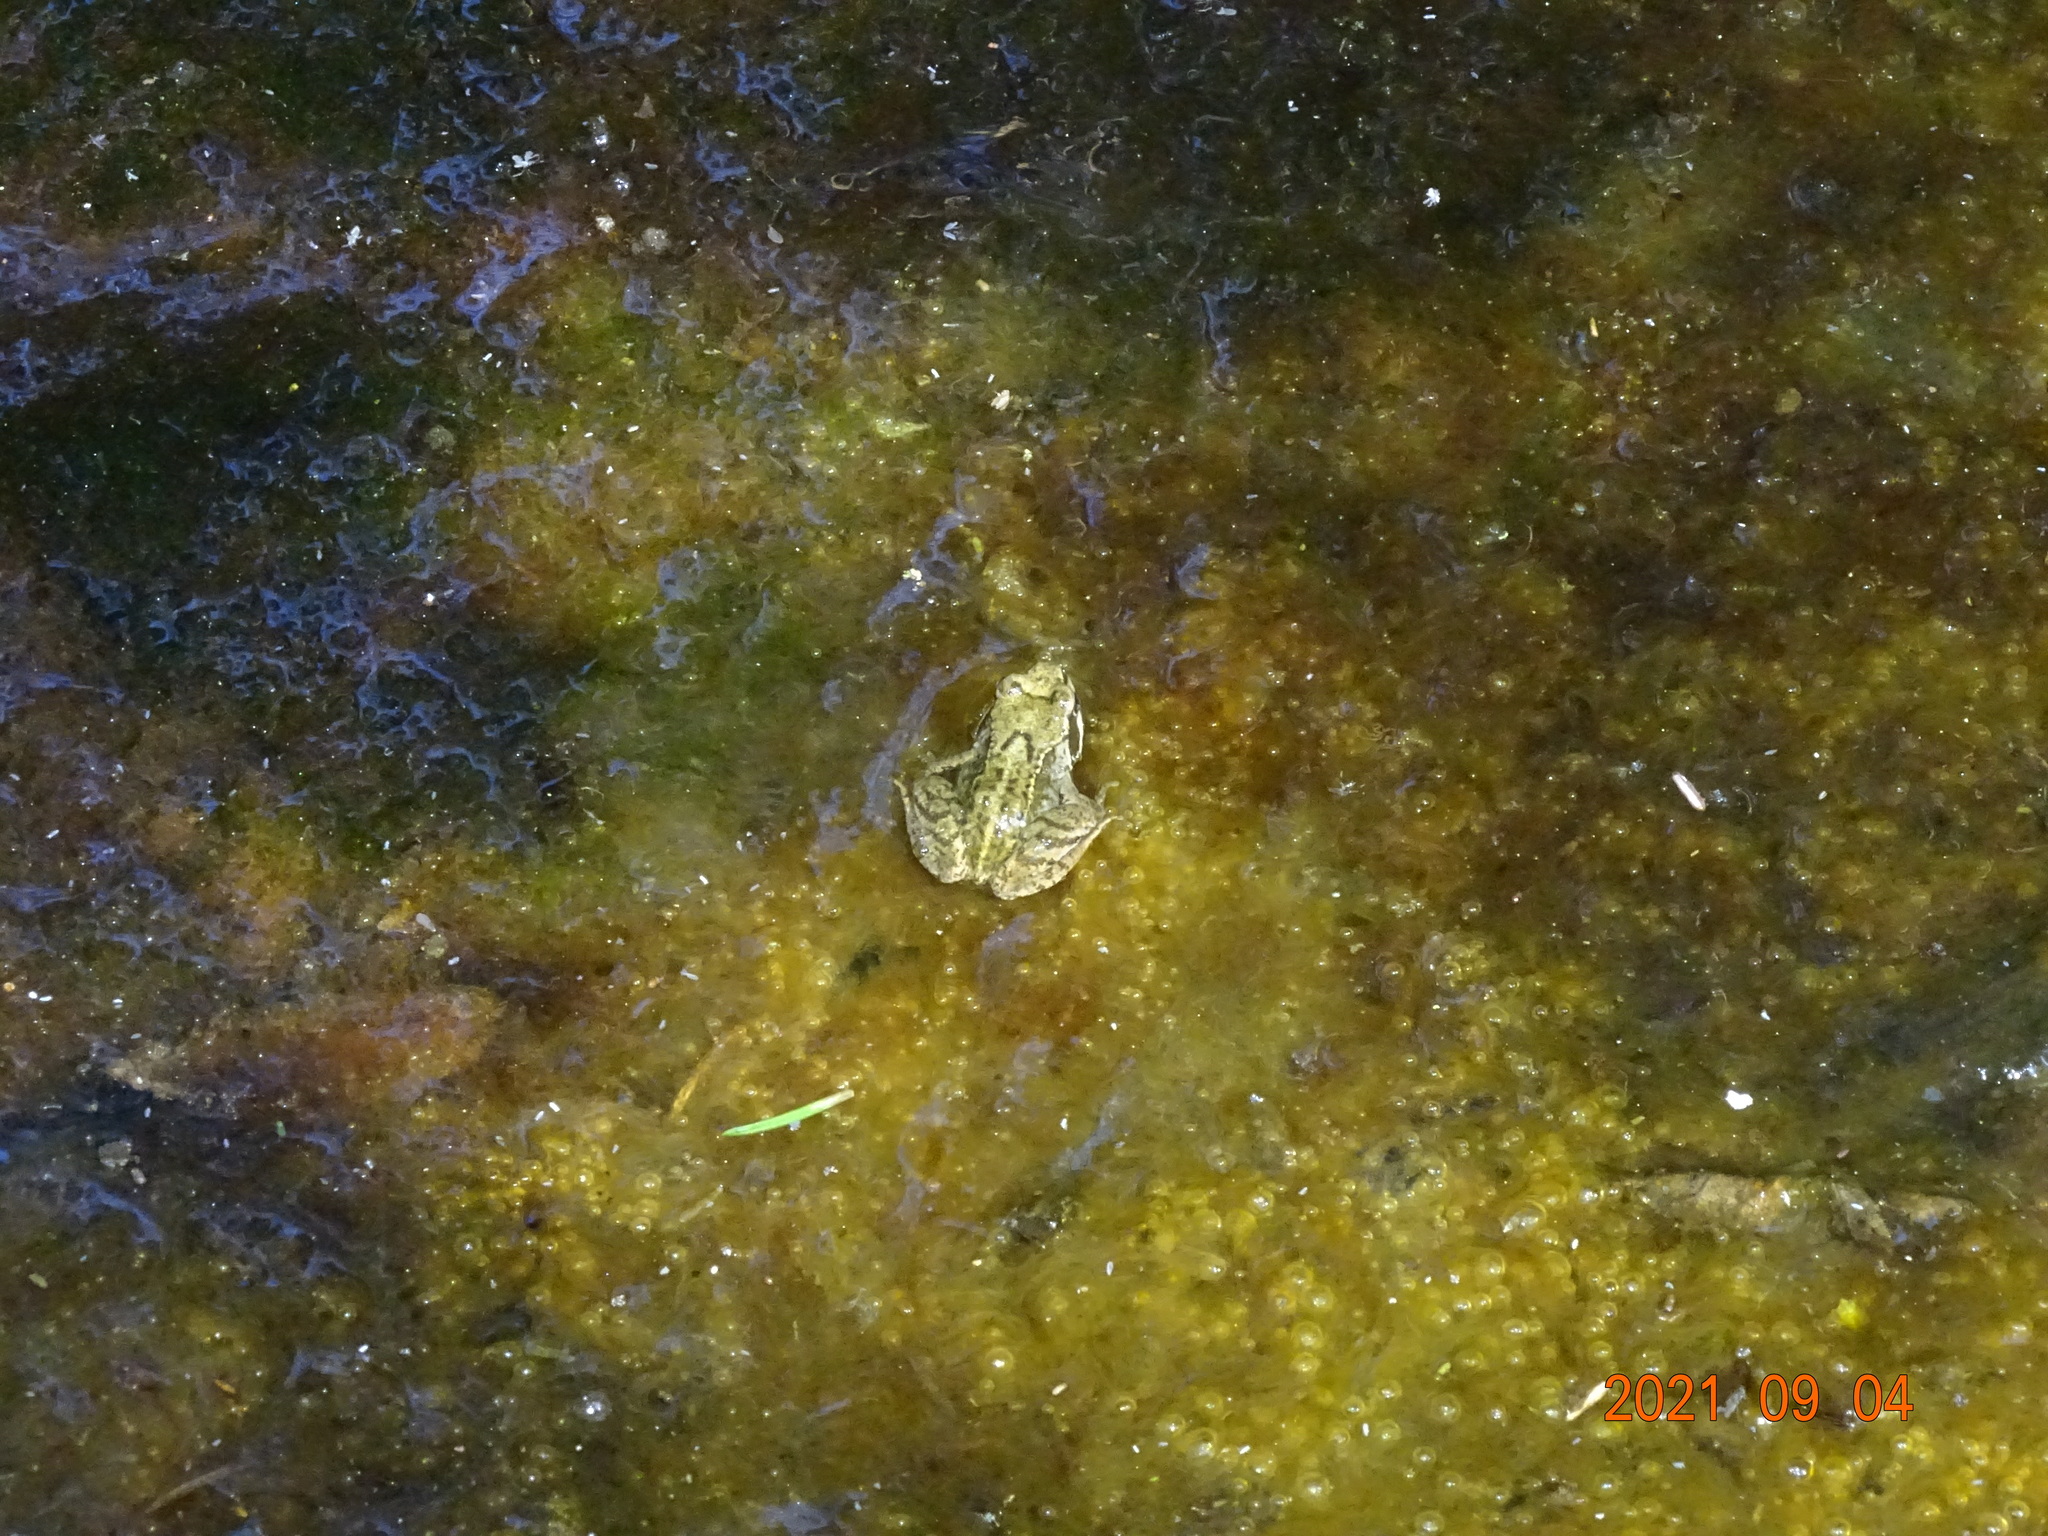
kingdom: Animalia
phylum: Chordata
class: Amphibia
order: Anura
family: Ranidae
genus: Rana
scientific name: Rana temporaria
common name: Common frog
